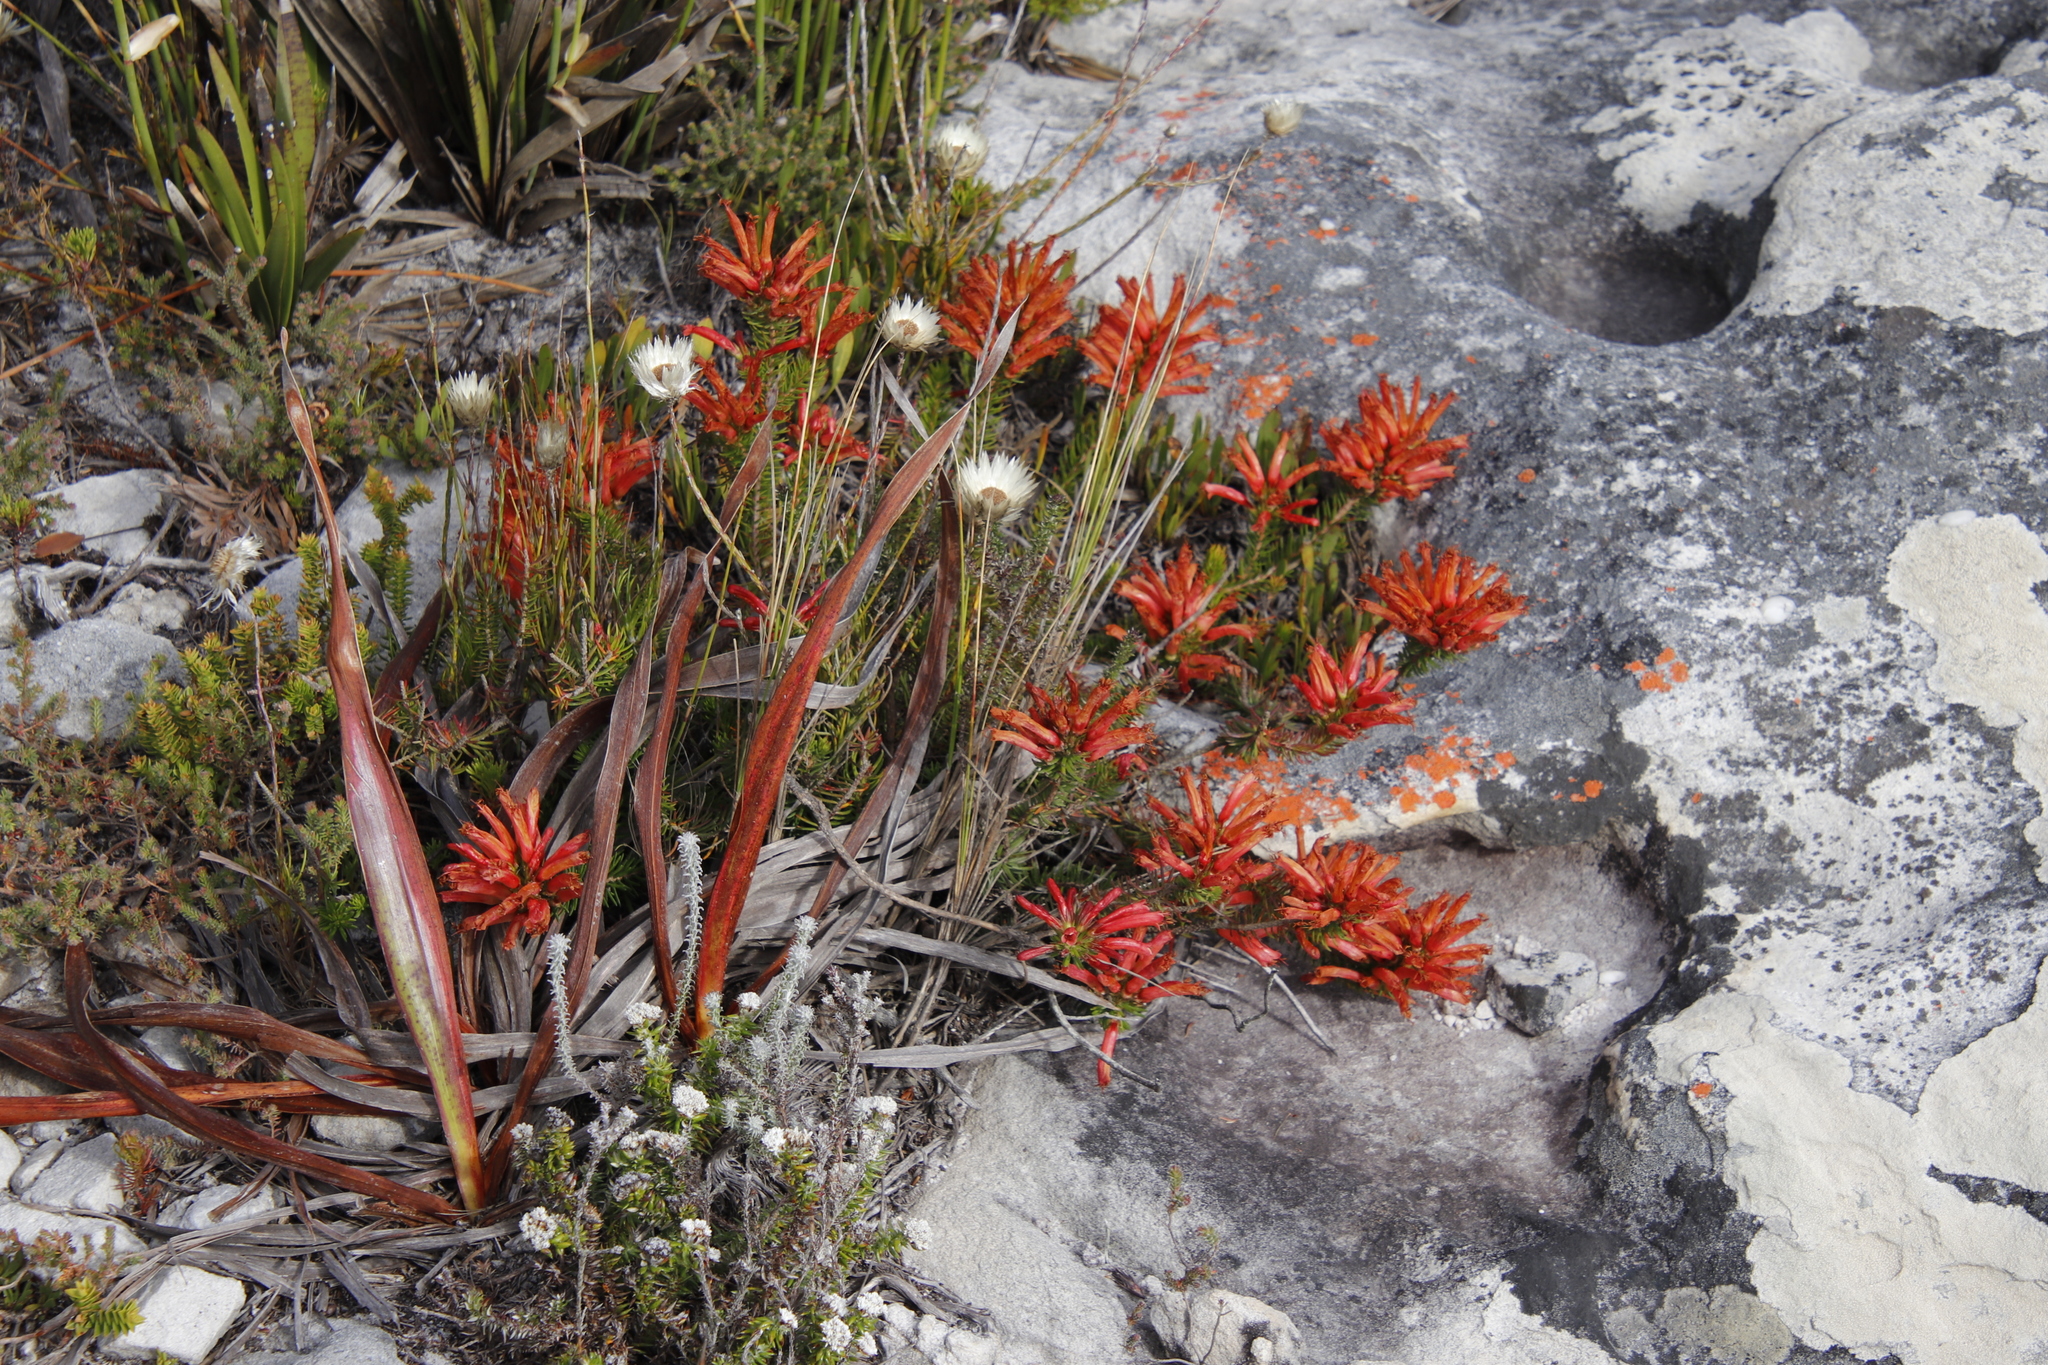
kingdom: Plantae
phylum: Tracheophyta
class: Magnoliopsida
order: Ericales
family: Ericaceae
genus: Erica
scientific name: Erica nevillei
